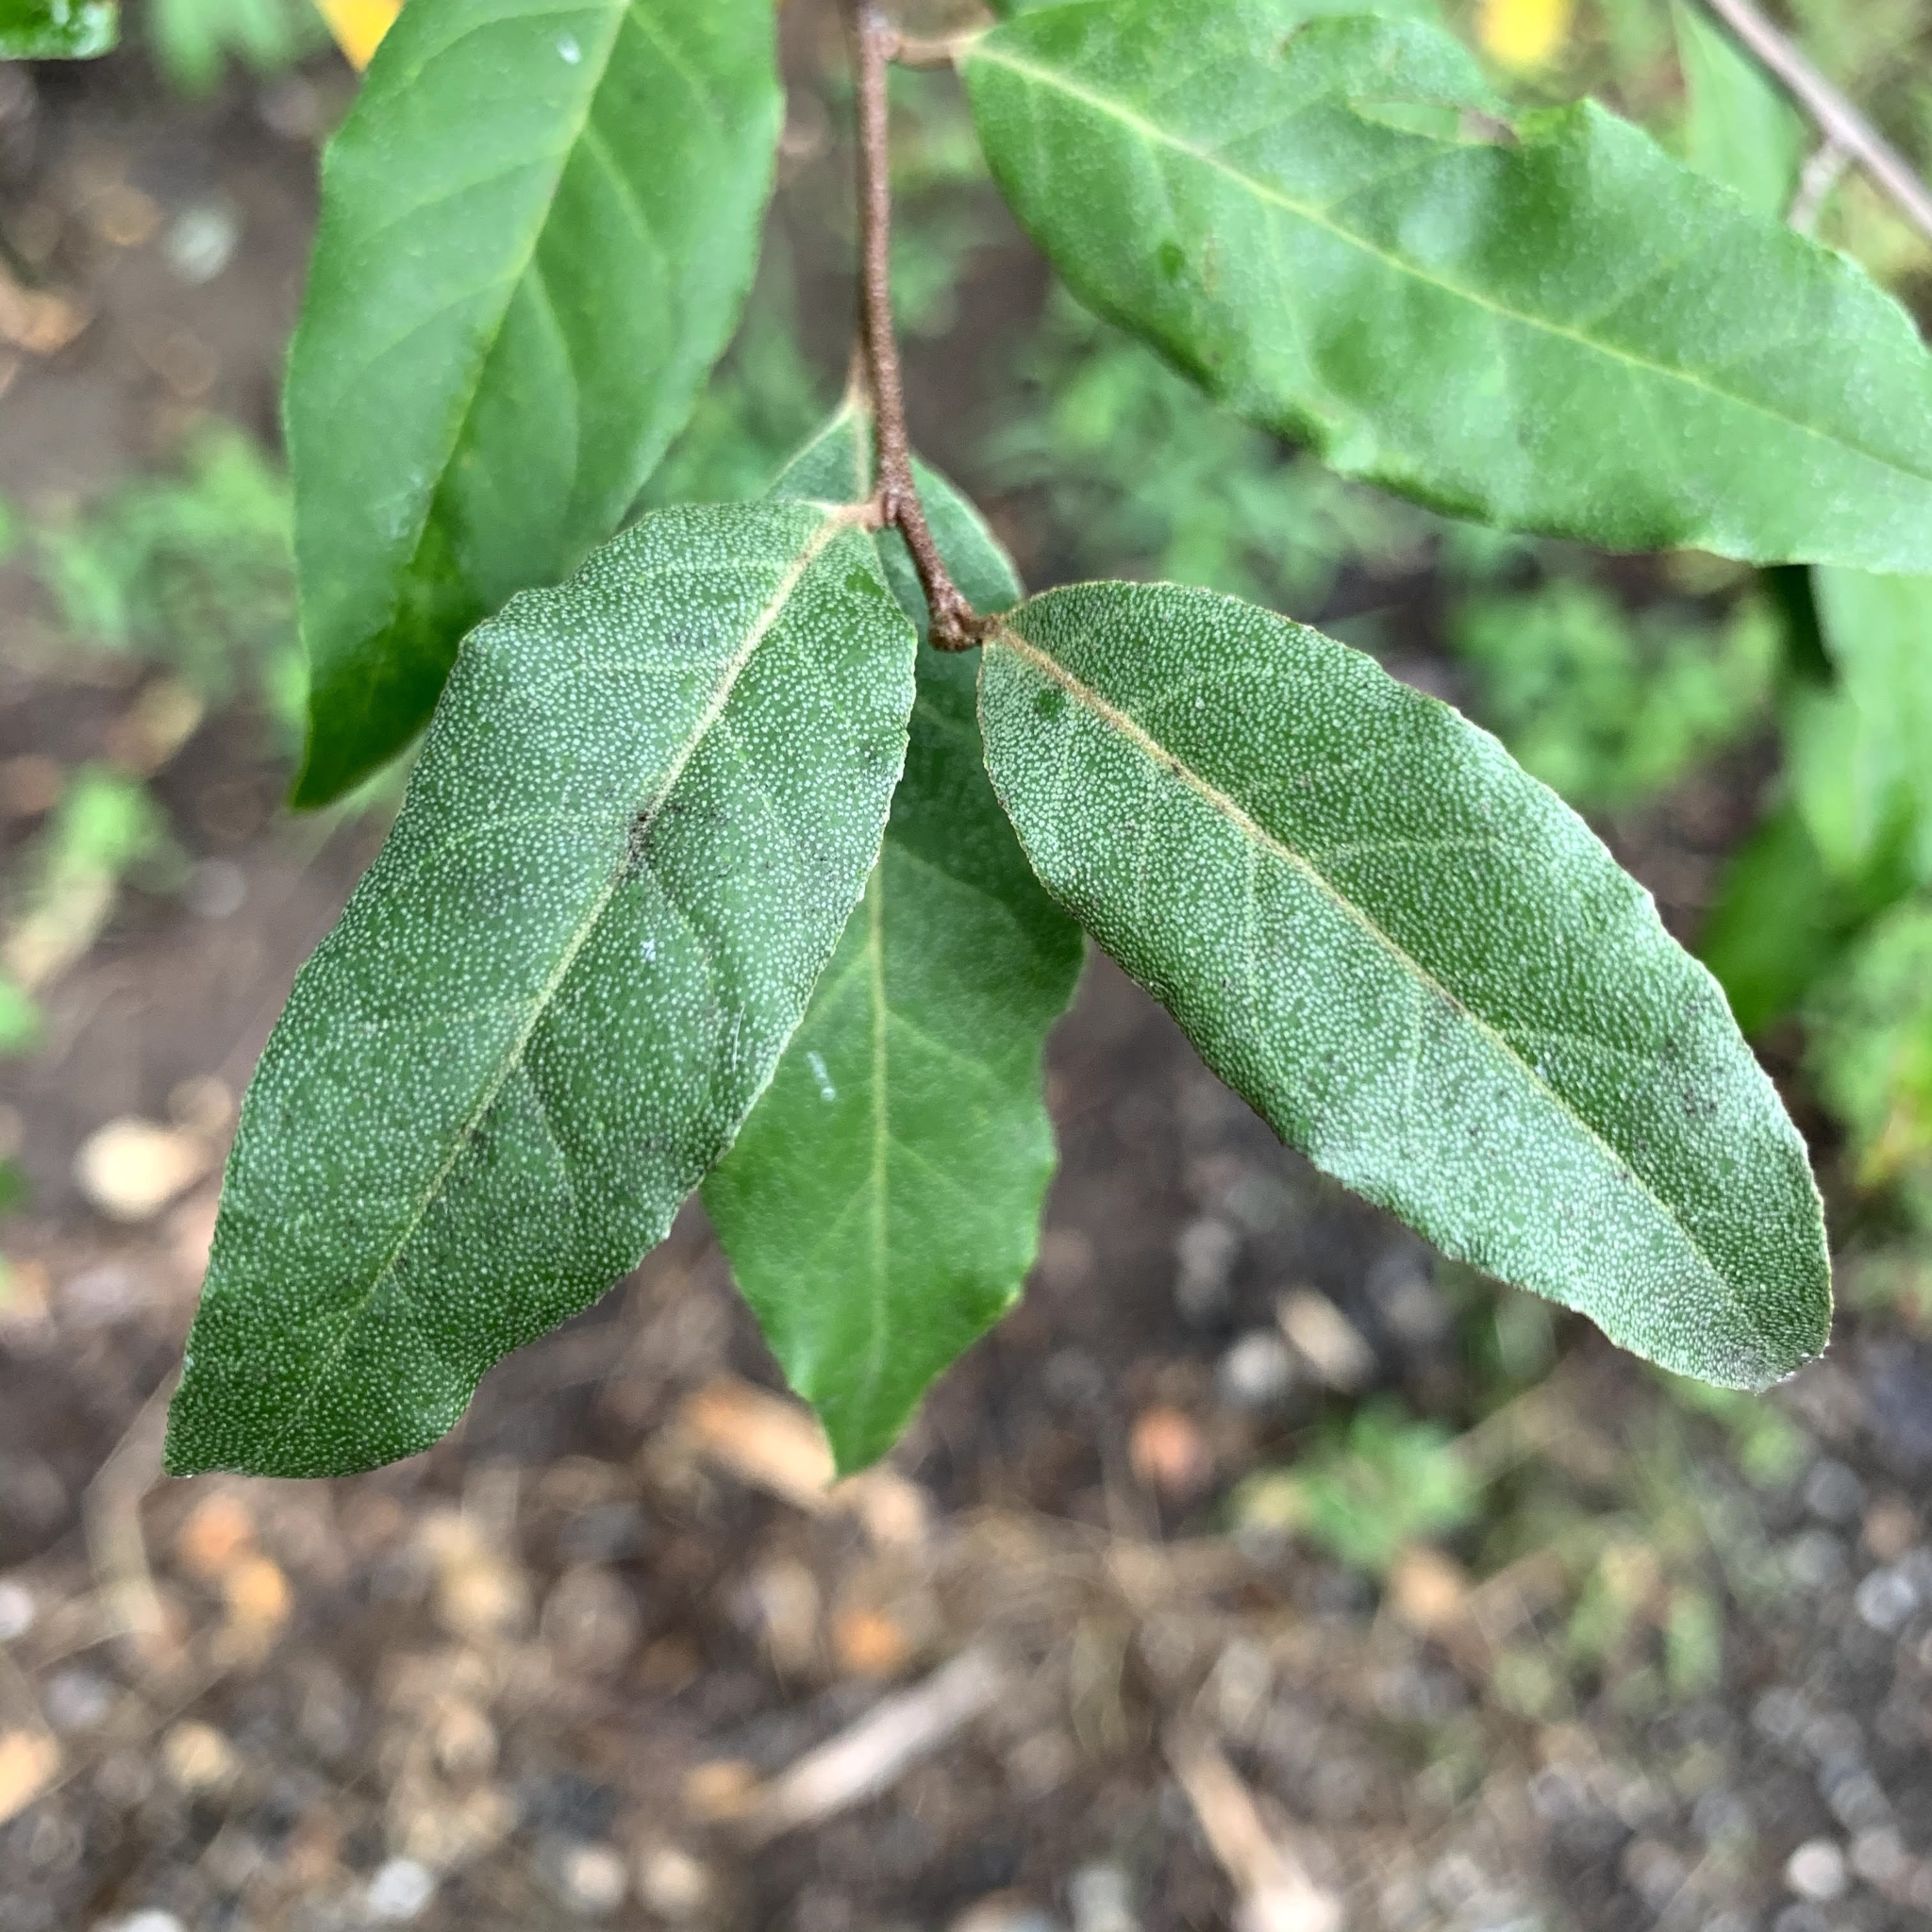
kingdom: Plantae
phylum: Tracheophyta
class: Magnoliopsida
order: Rosales
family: Elaeagnaceae
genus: Elaeagnus
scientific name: Elaeagnus umbellata
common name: Autumn olive
